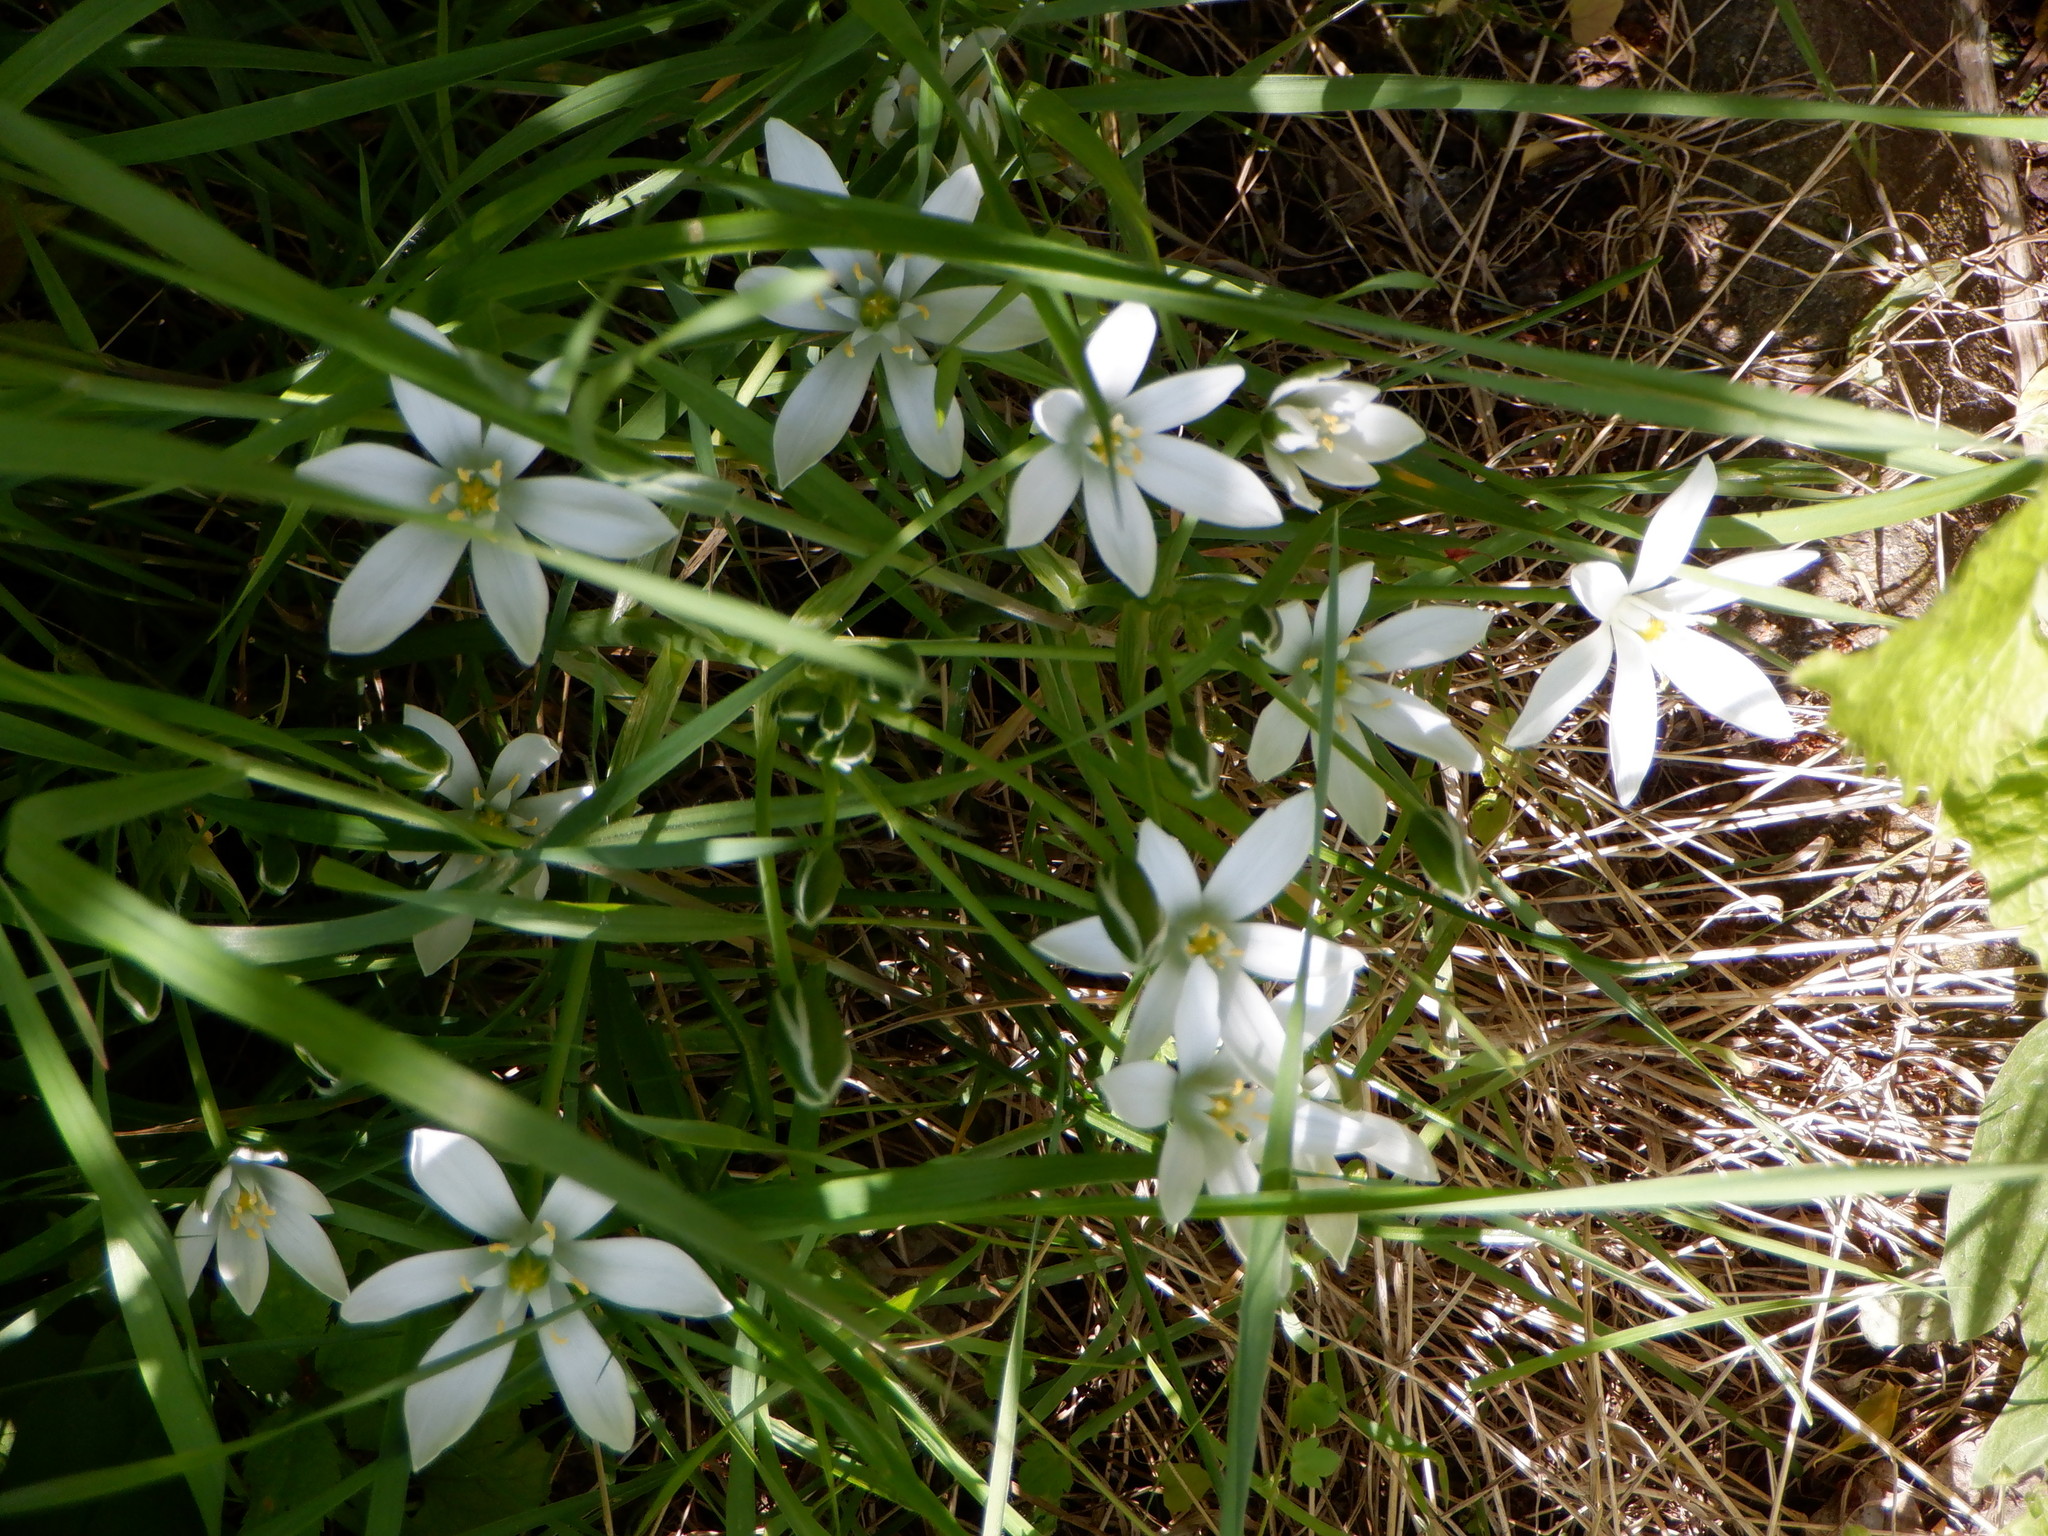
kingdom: Plantae
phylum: Tracheophyta
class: Liliopsida
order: Asparagales
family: Asparagaceae
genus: Ornithogalum
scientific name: Ornithogalum umbellatum
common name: Garden star-of-bethlehem
